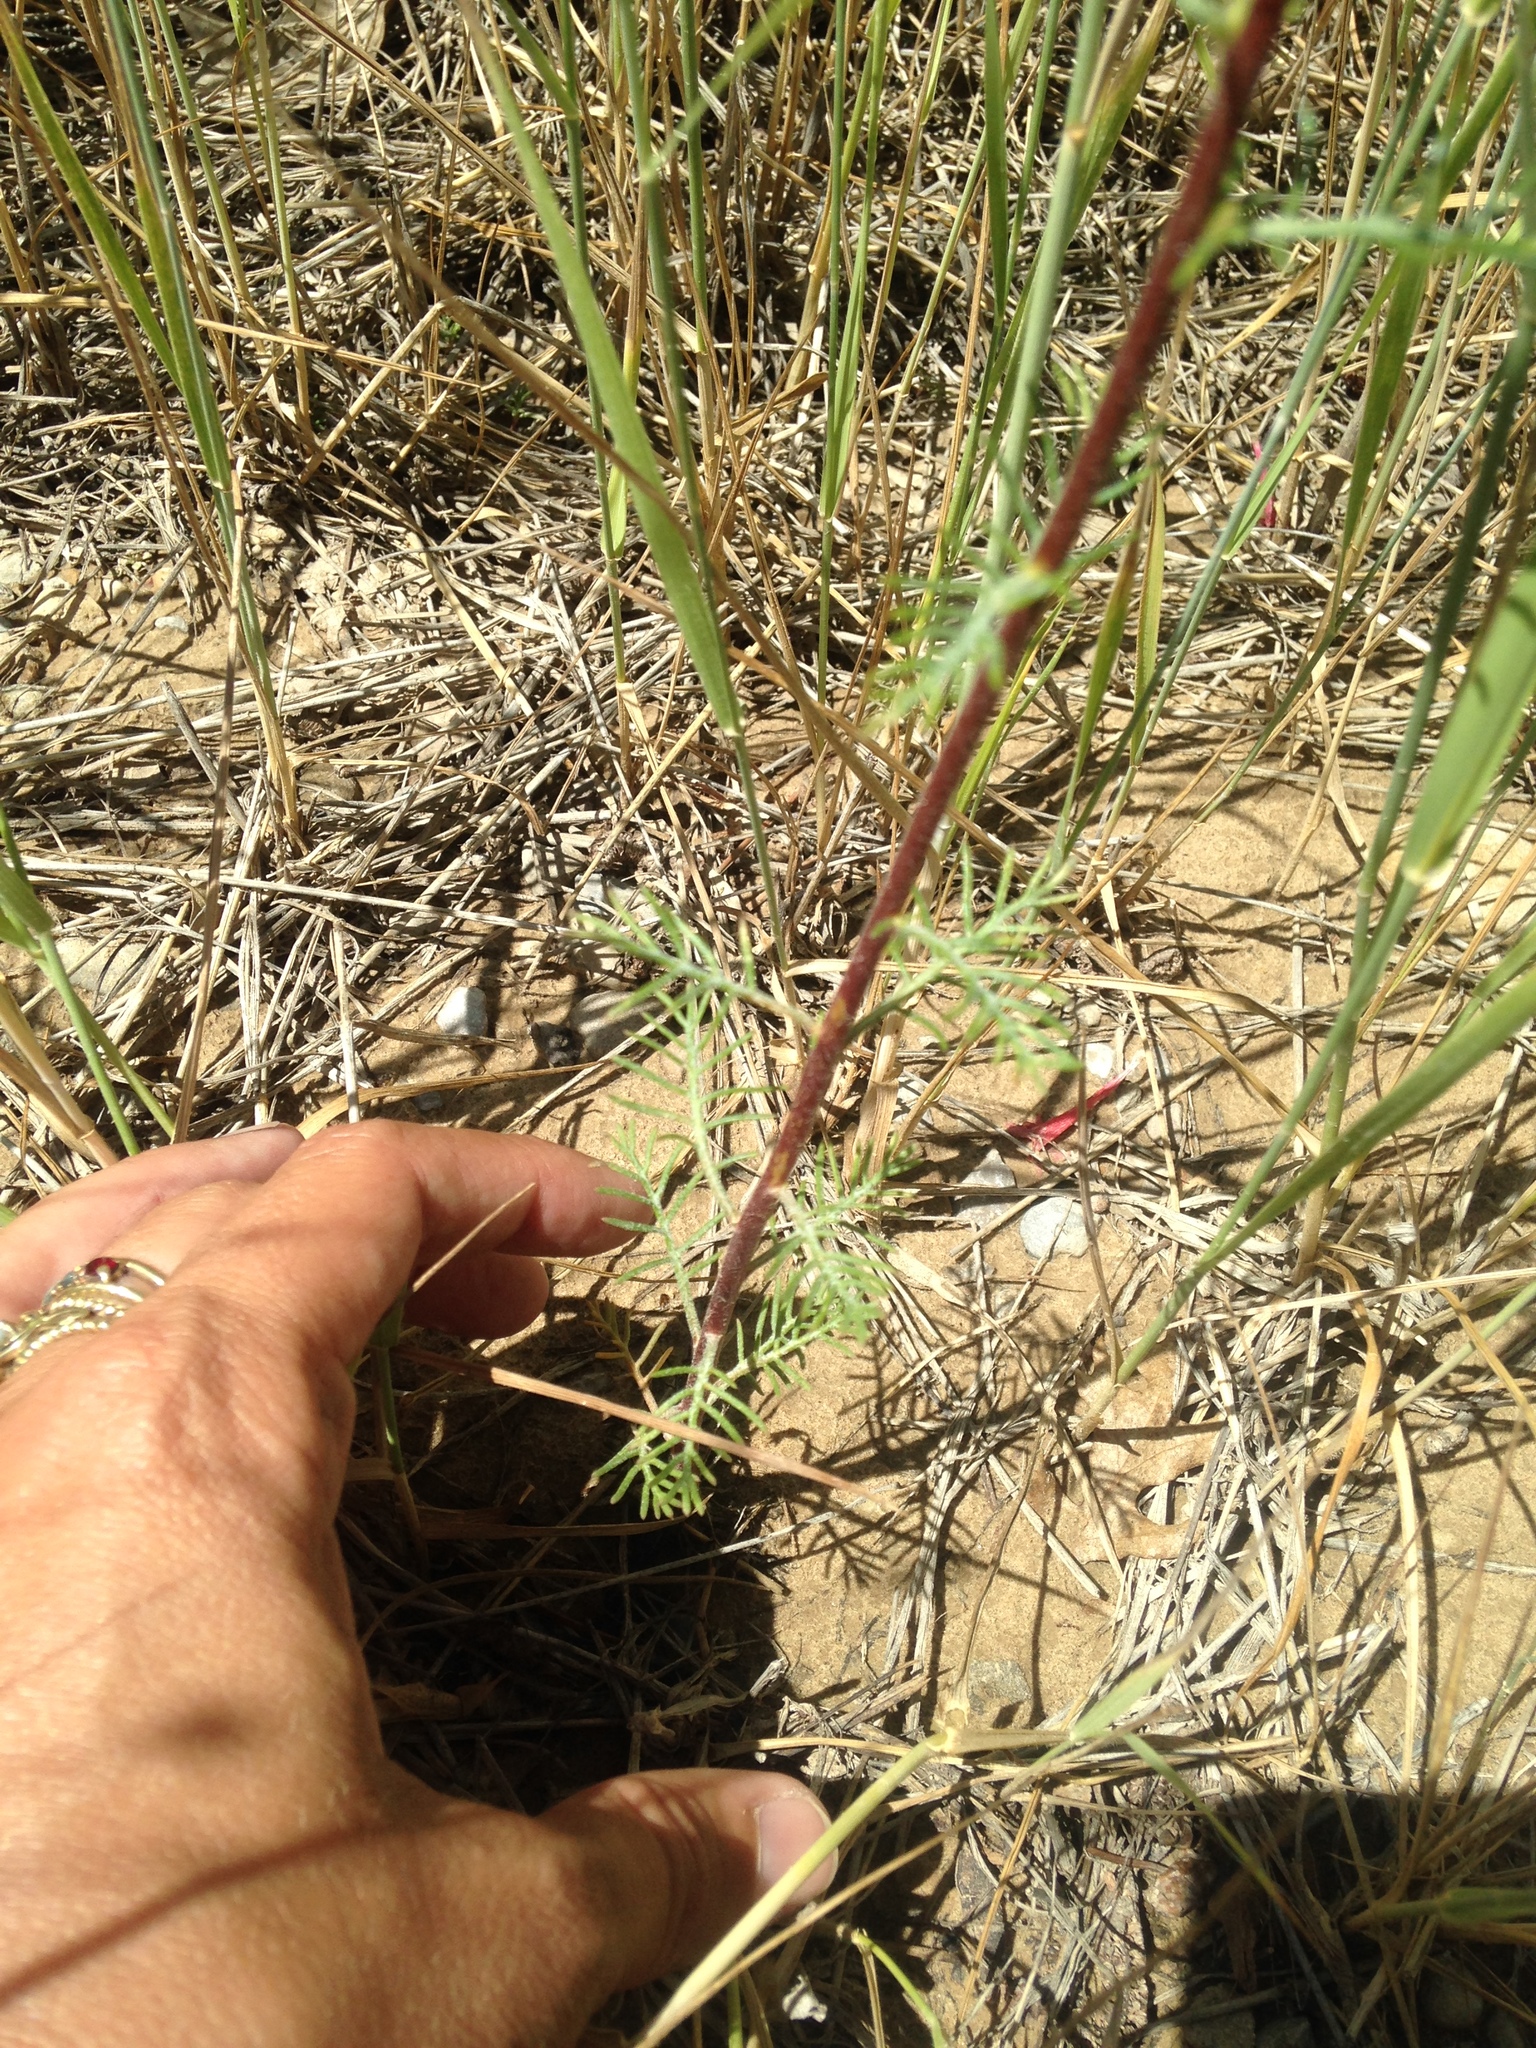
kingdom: Plantae
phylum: Tracheophyta
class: Magnoliopsida
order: Ericales
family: Polemoniaceae
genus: Ipomopsis
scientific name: Ipomopsis aggregata
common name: Scarlet gilia
